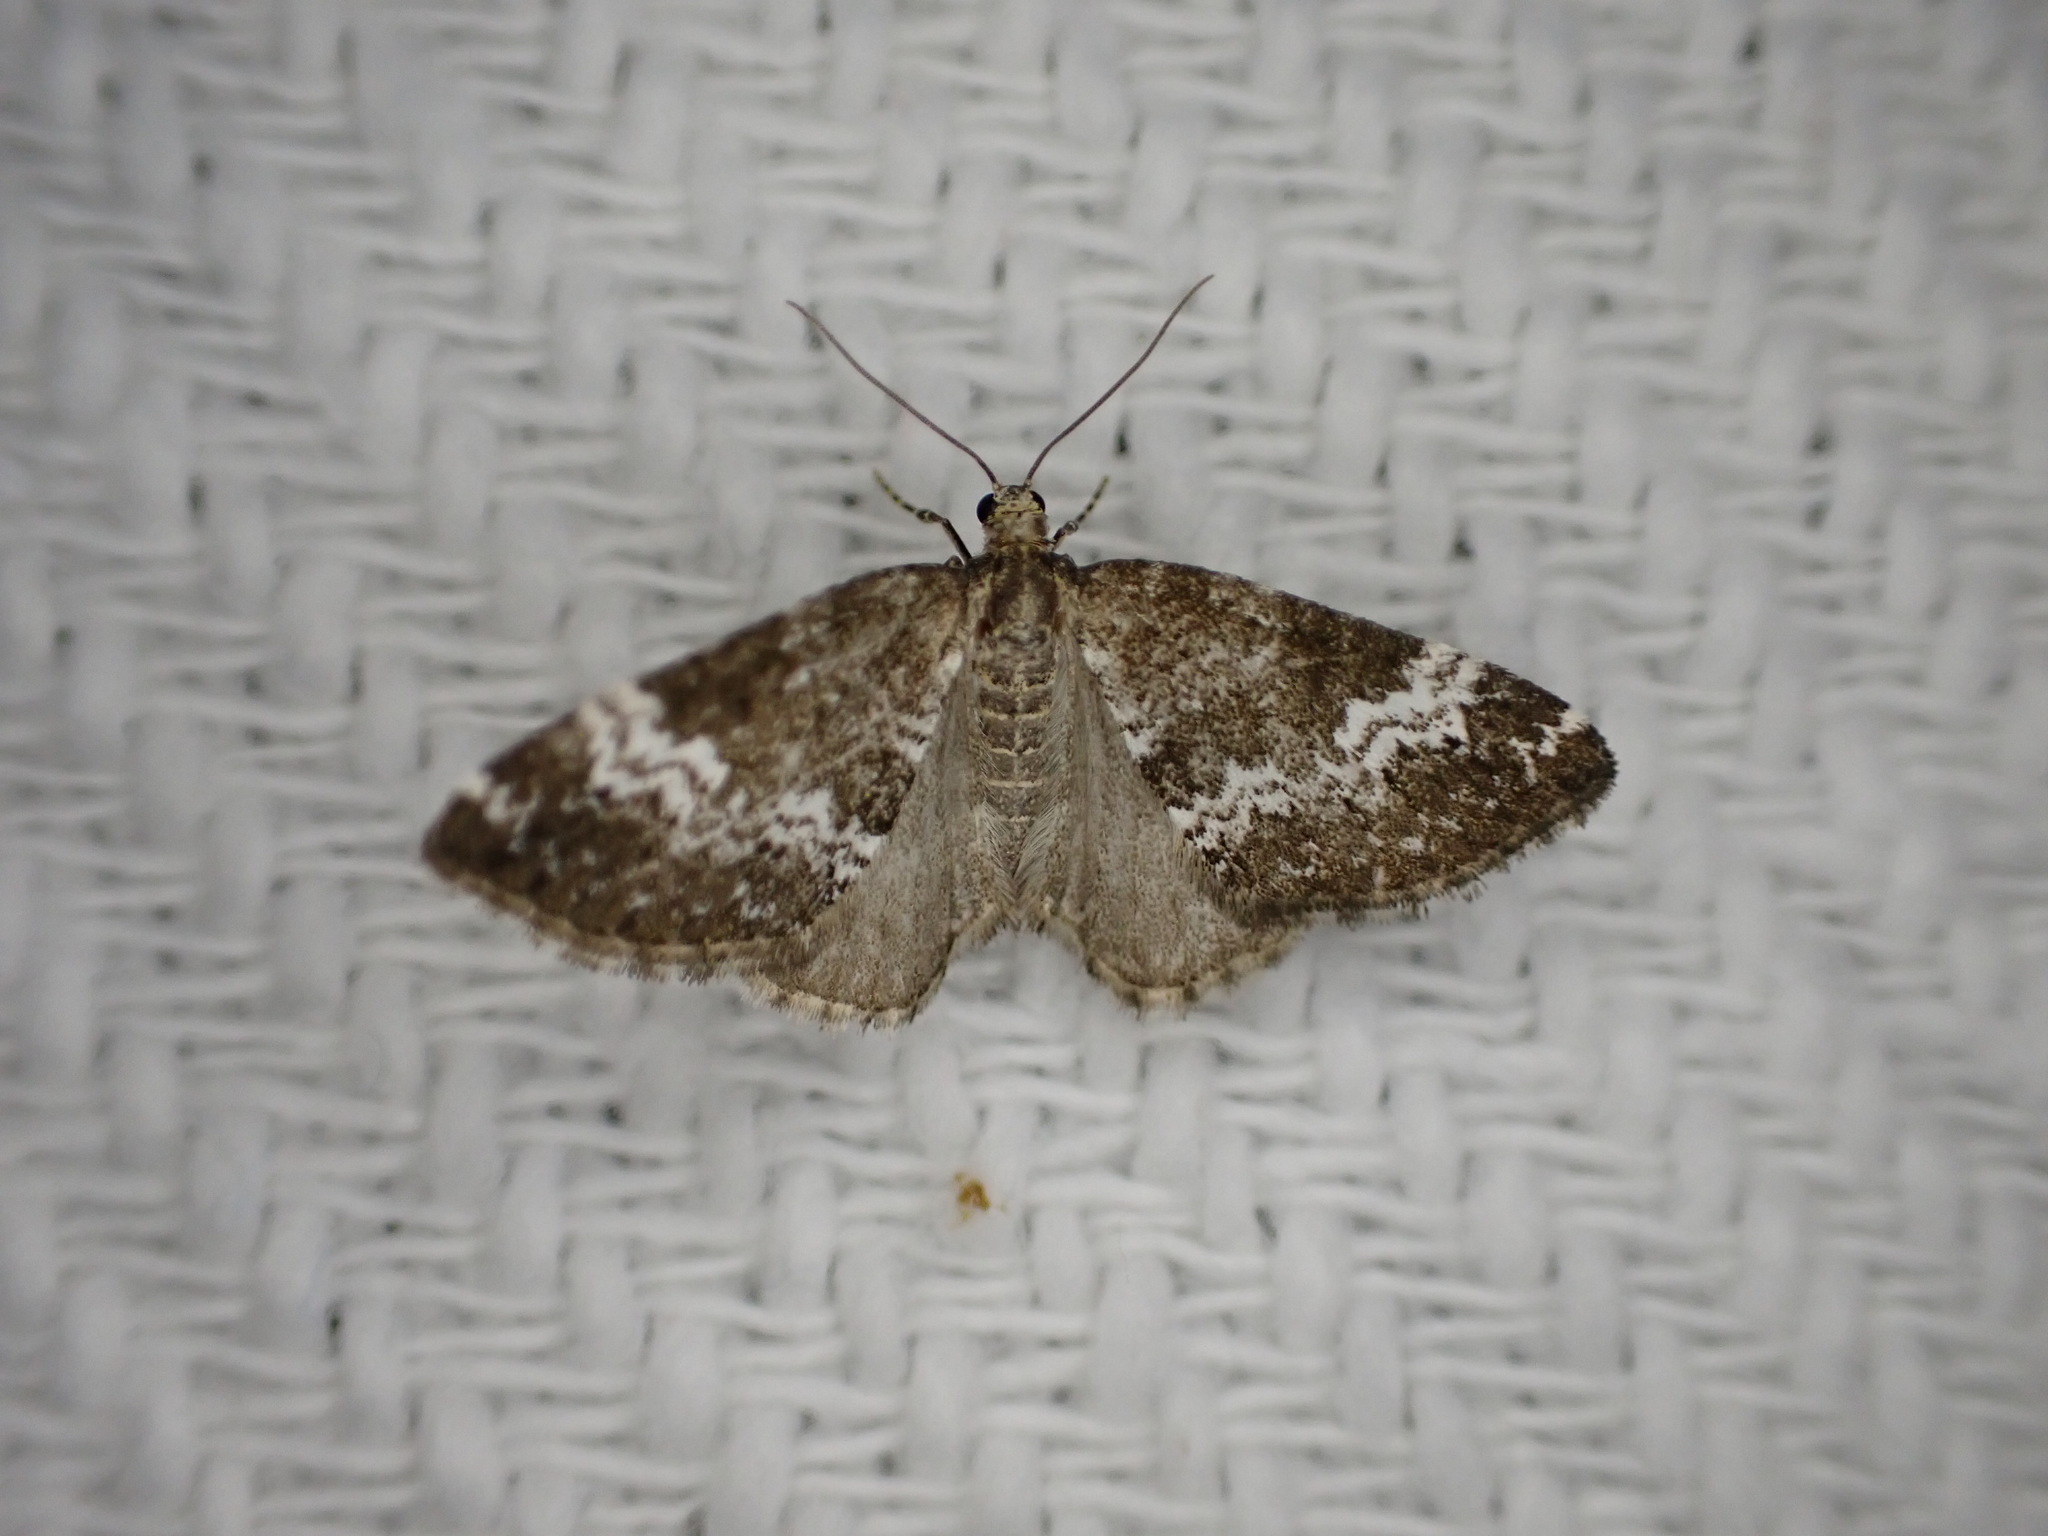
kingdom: Animalia
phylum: Arthropoda
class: Insecta
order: Lepidoptera
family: Geometridae
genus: Perizoma
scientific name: Perizoma alchemillata
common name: Small rivulet
